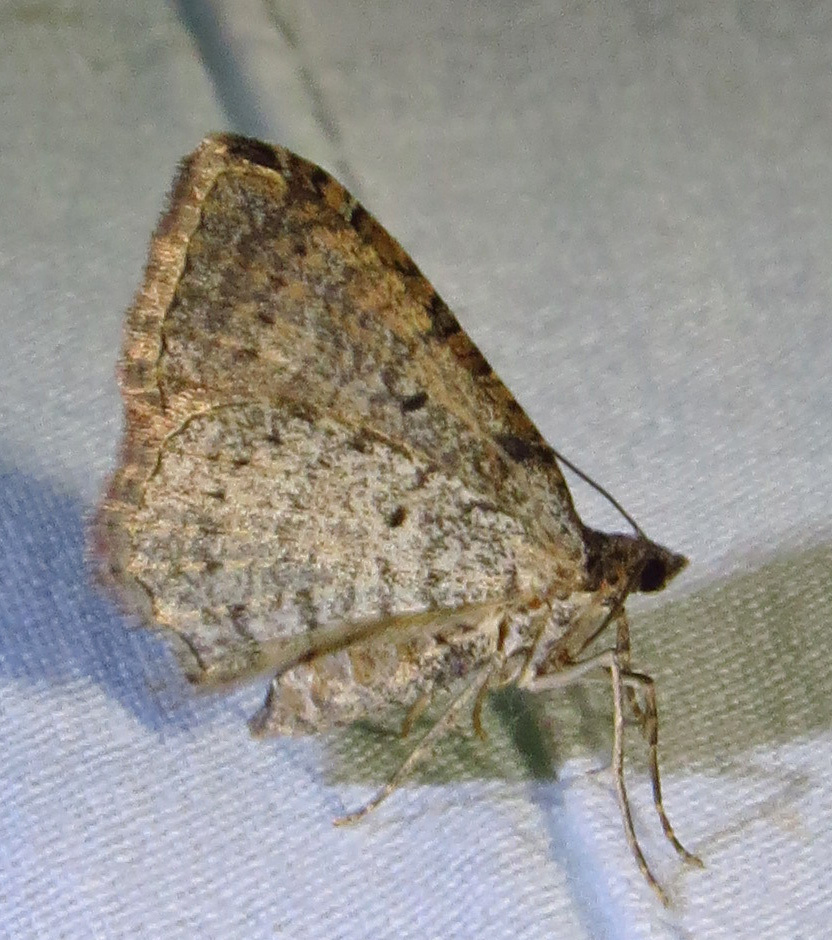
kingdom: Animalia
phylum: Arthropoda
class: Insecta
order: Lepidoptera
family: Geometridae
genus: Costaconvexa
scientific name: Costaconvexa centrostrigaria
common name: Bent-line carpet
